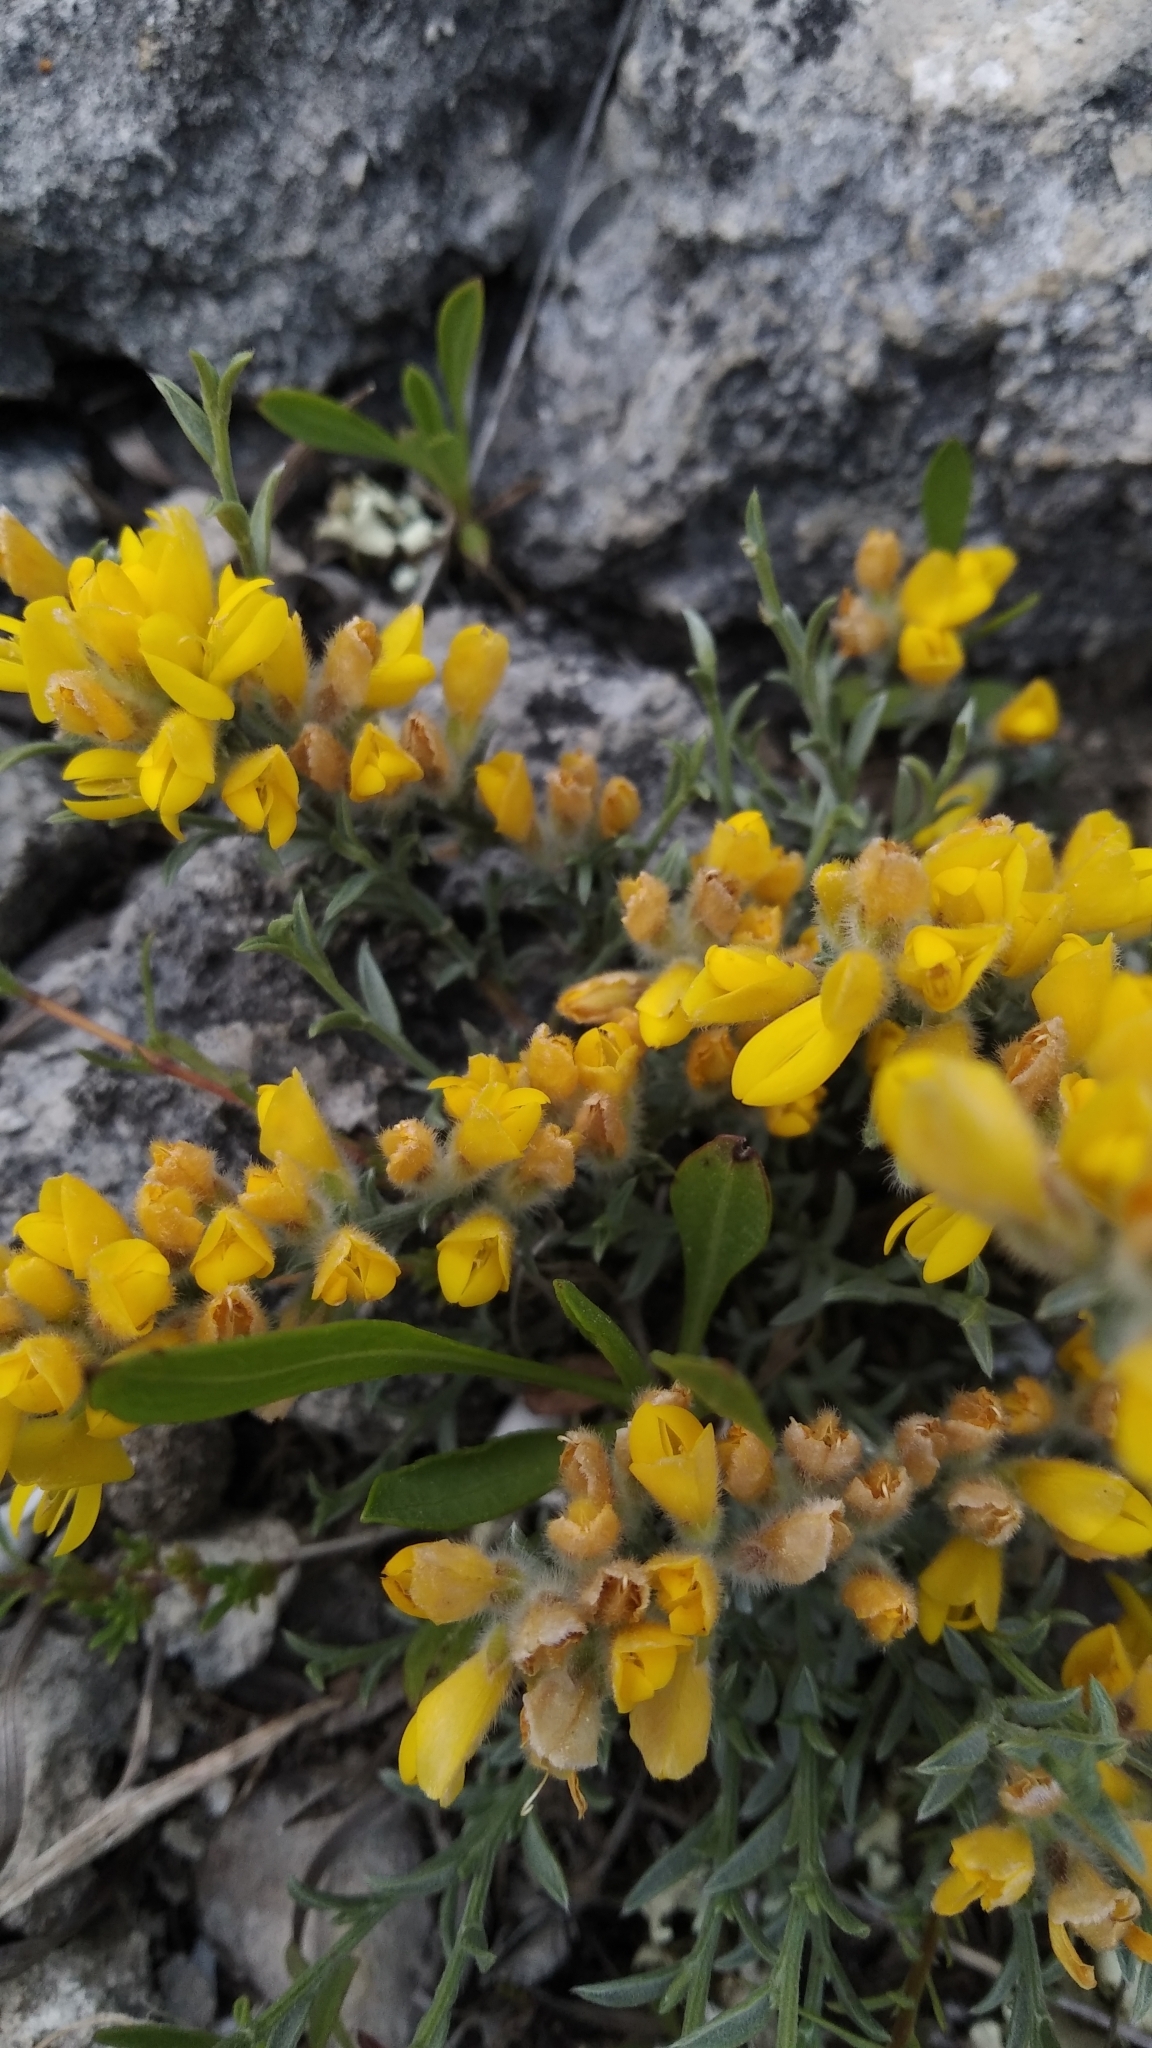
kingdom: Plantae
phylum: Tracheophyta
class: Magnoliopsida
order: Fabales
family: Fabaceae
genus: Genista
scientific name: Genista albida
